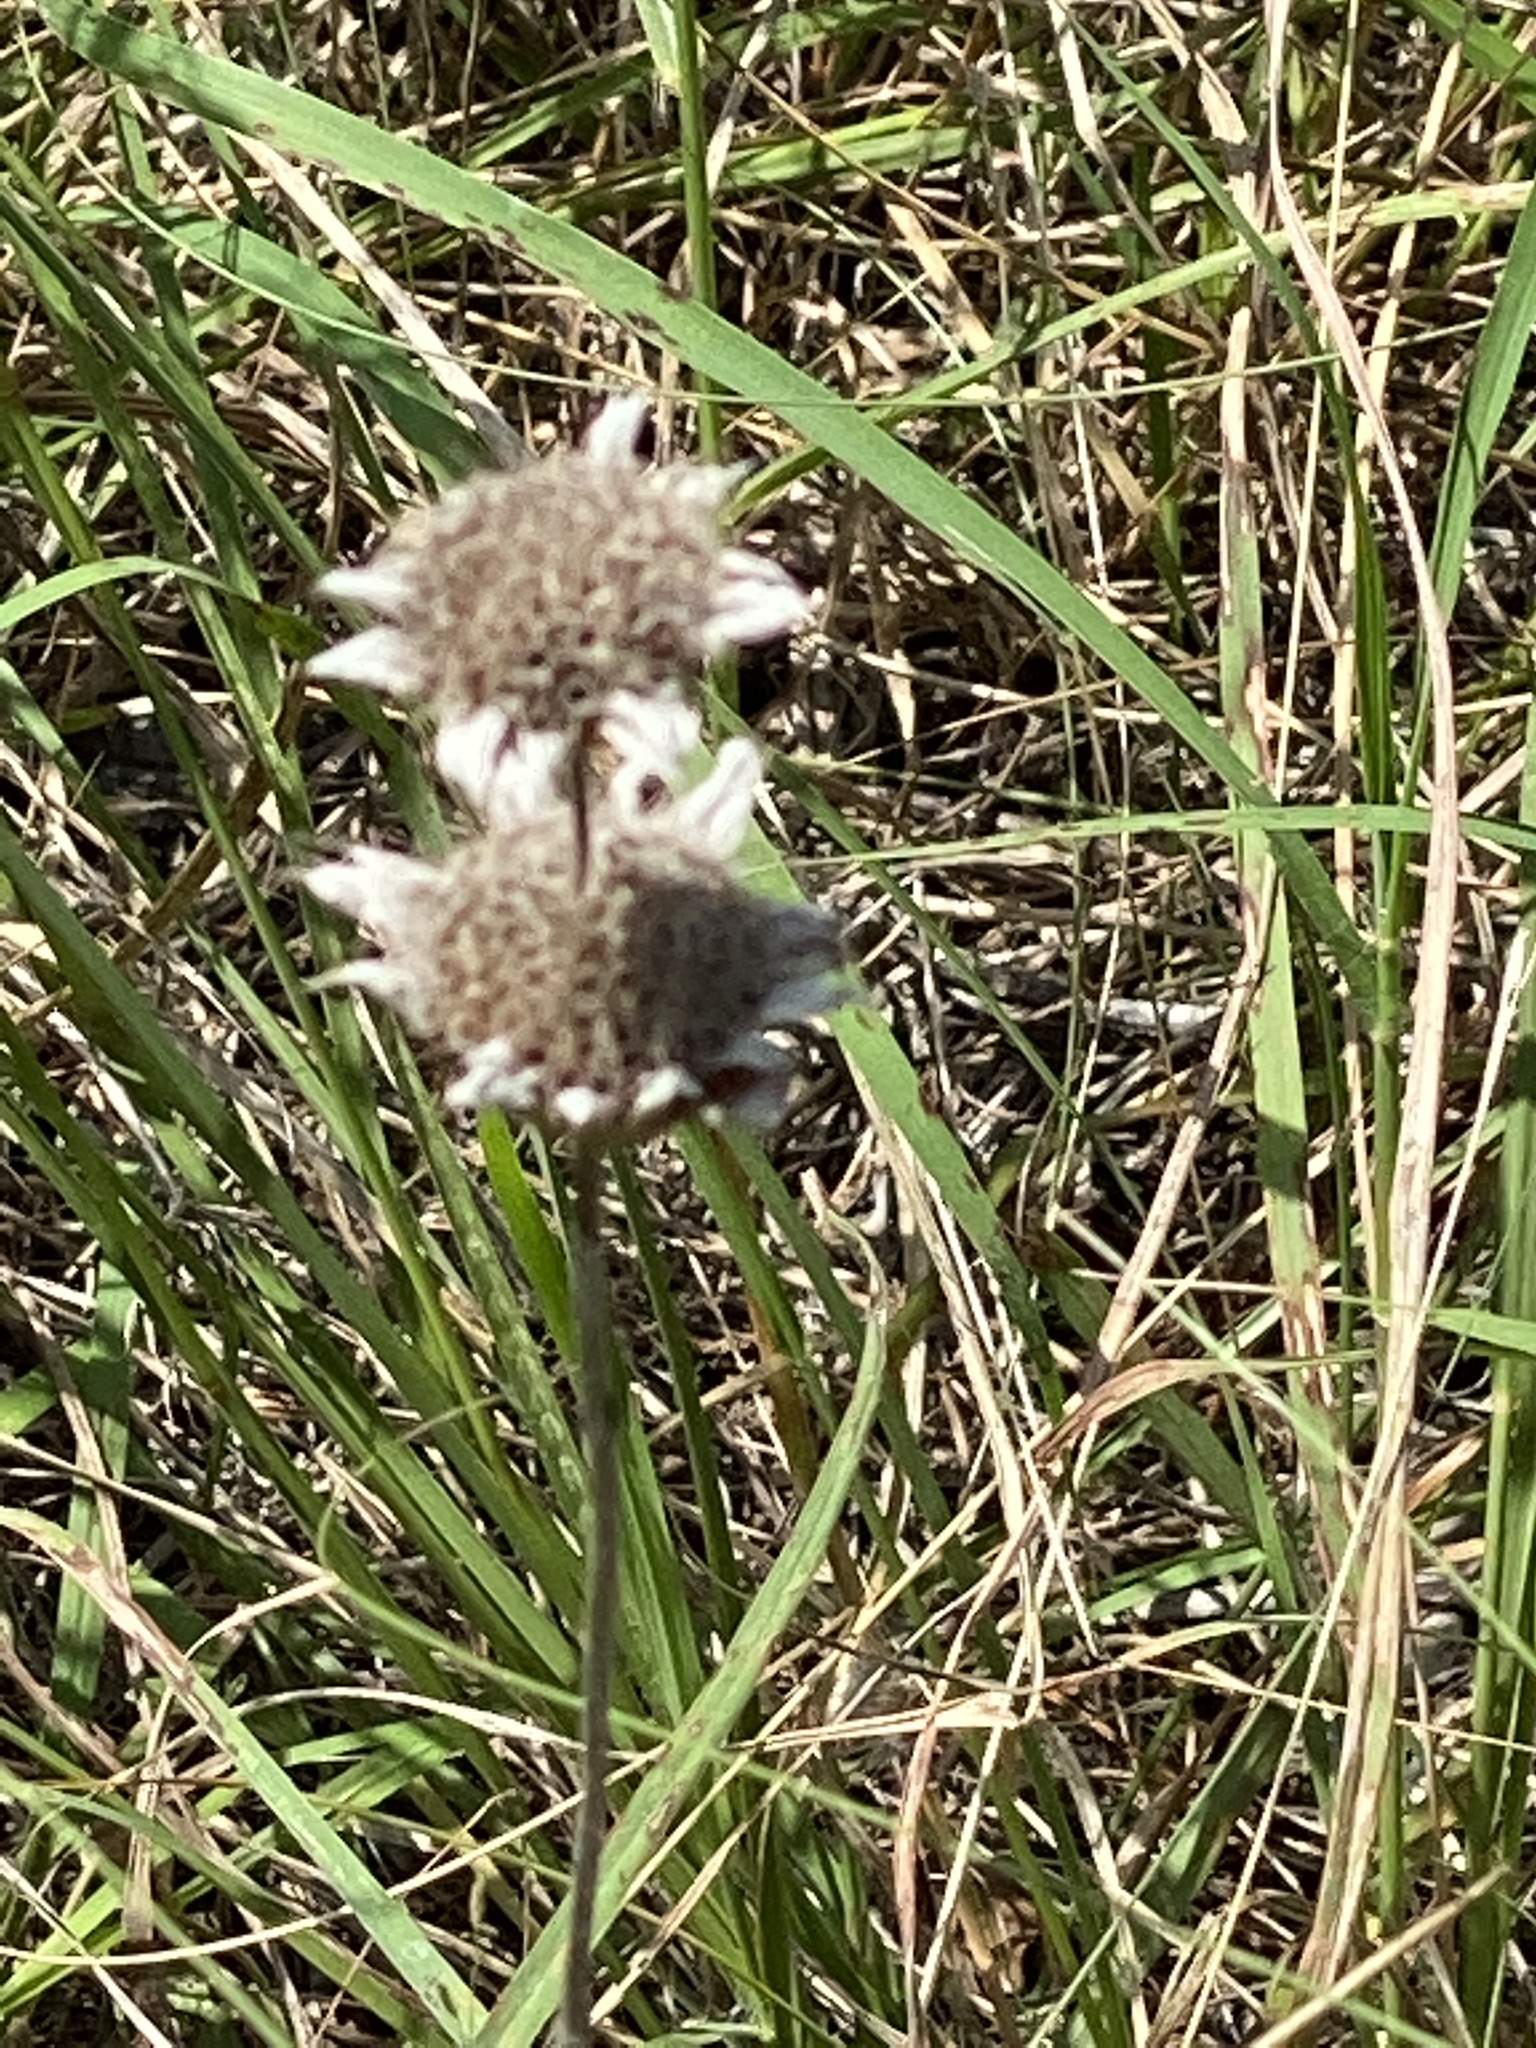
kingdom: Plantae
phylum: Tracheophyta
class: Magnoliopsida
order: Lamiales
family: Lamiaceae
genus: Monarda
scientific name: Monarda citriodora
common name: Lemon beebalm
